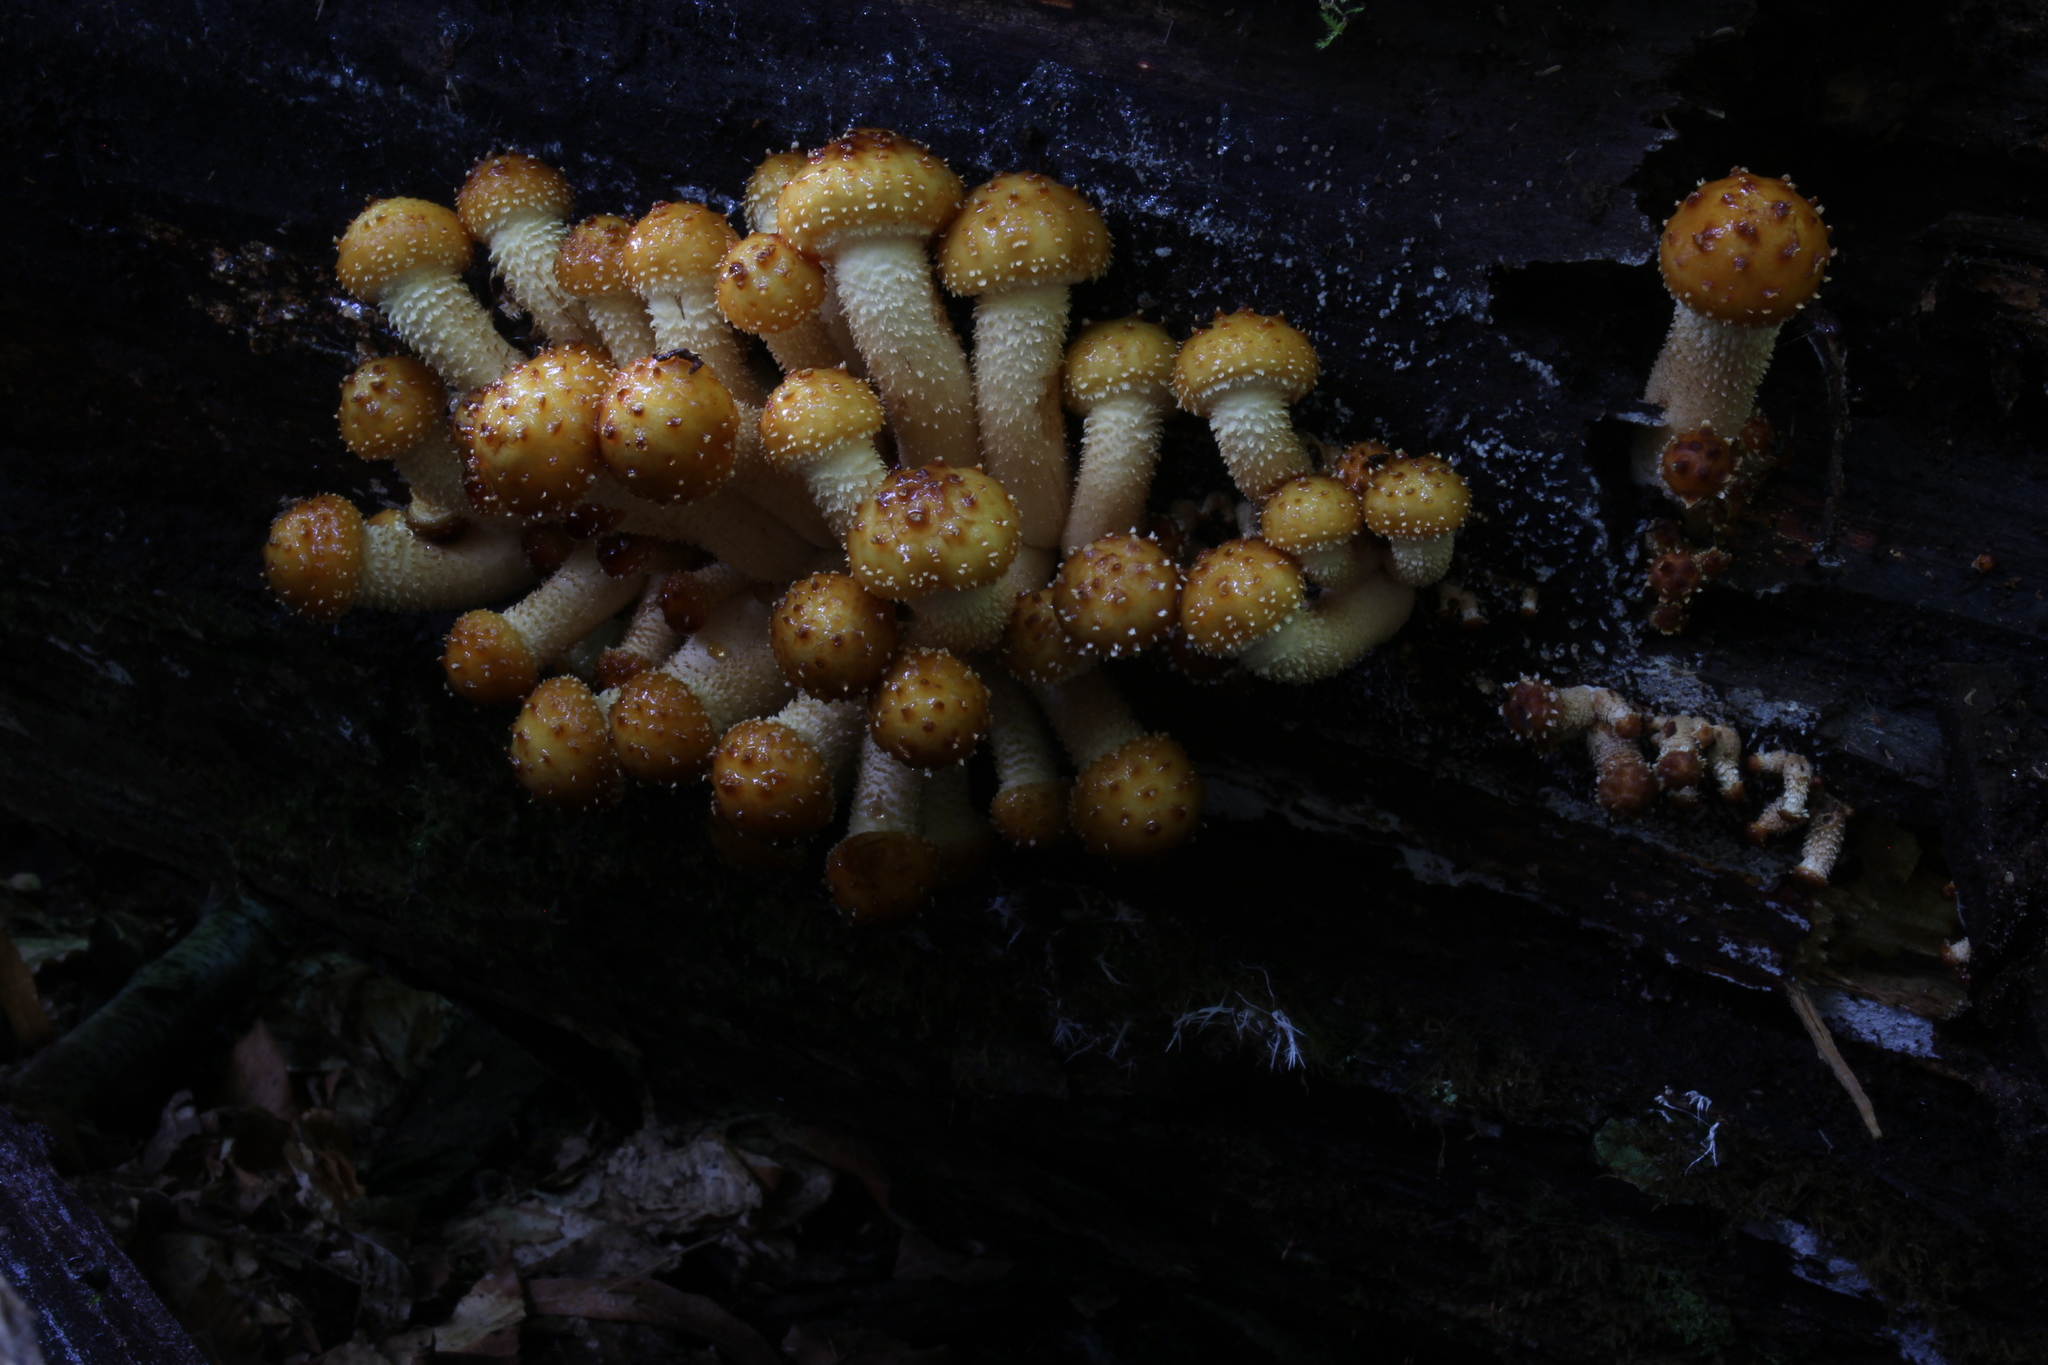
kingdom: Fungi
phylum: Basidiomycota
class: Agaricomycetes
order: Agaricales
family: Strophariaceae
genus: Pholiota
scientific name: Pholiota limonella
